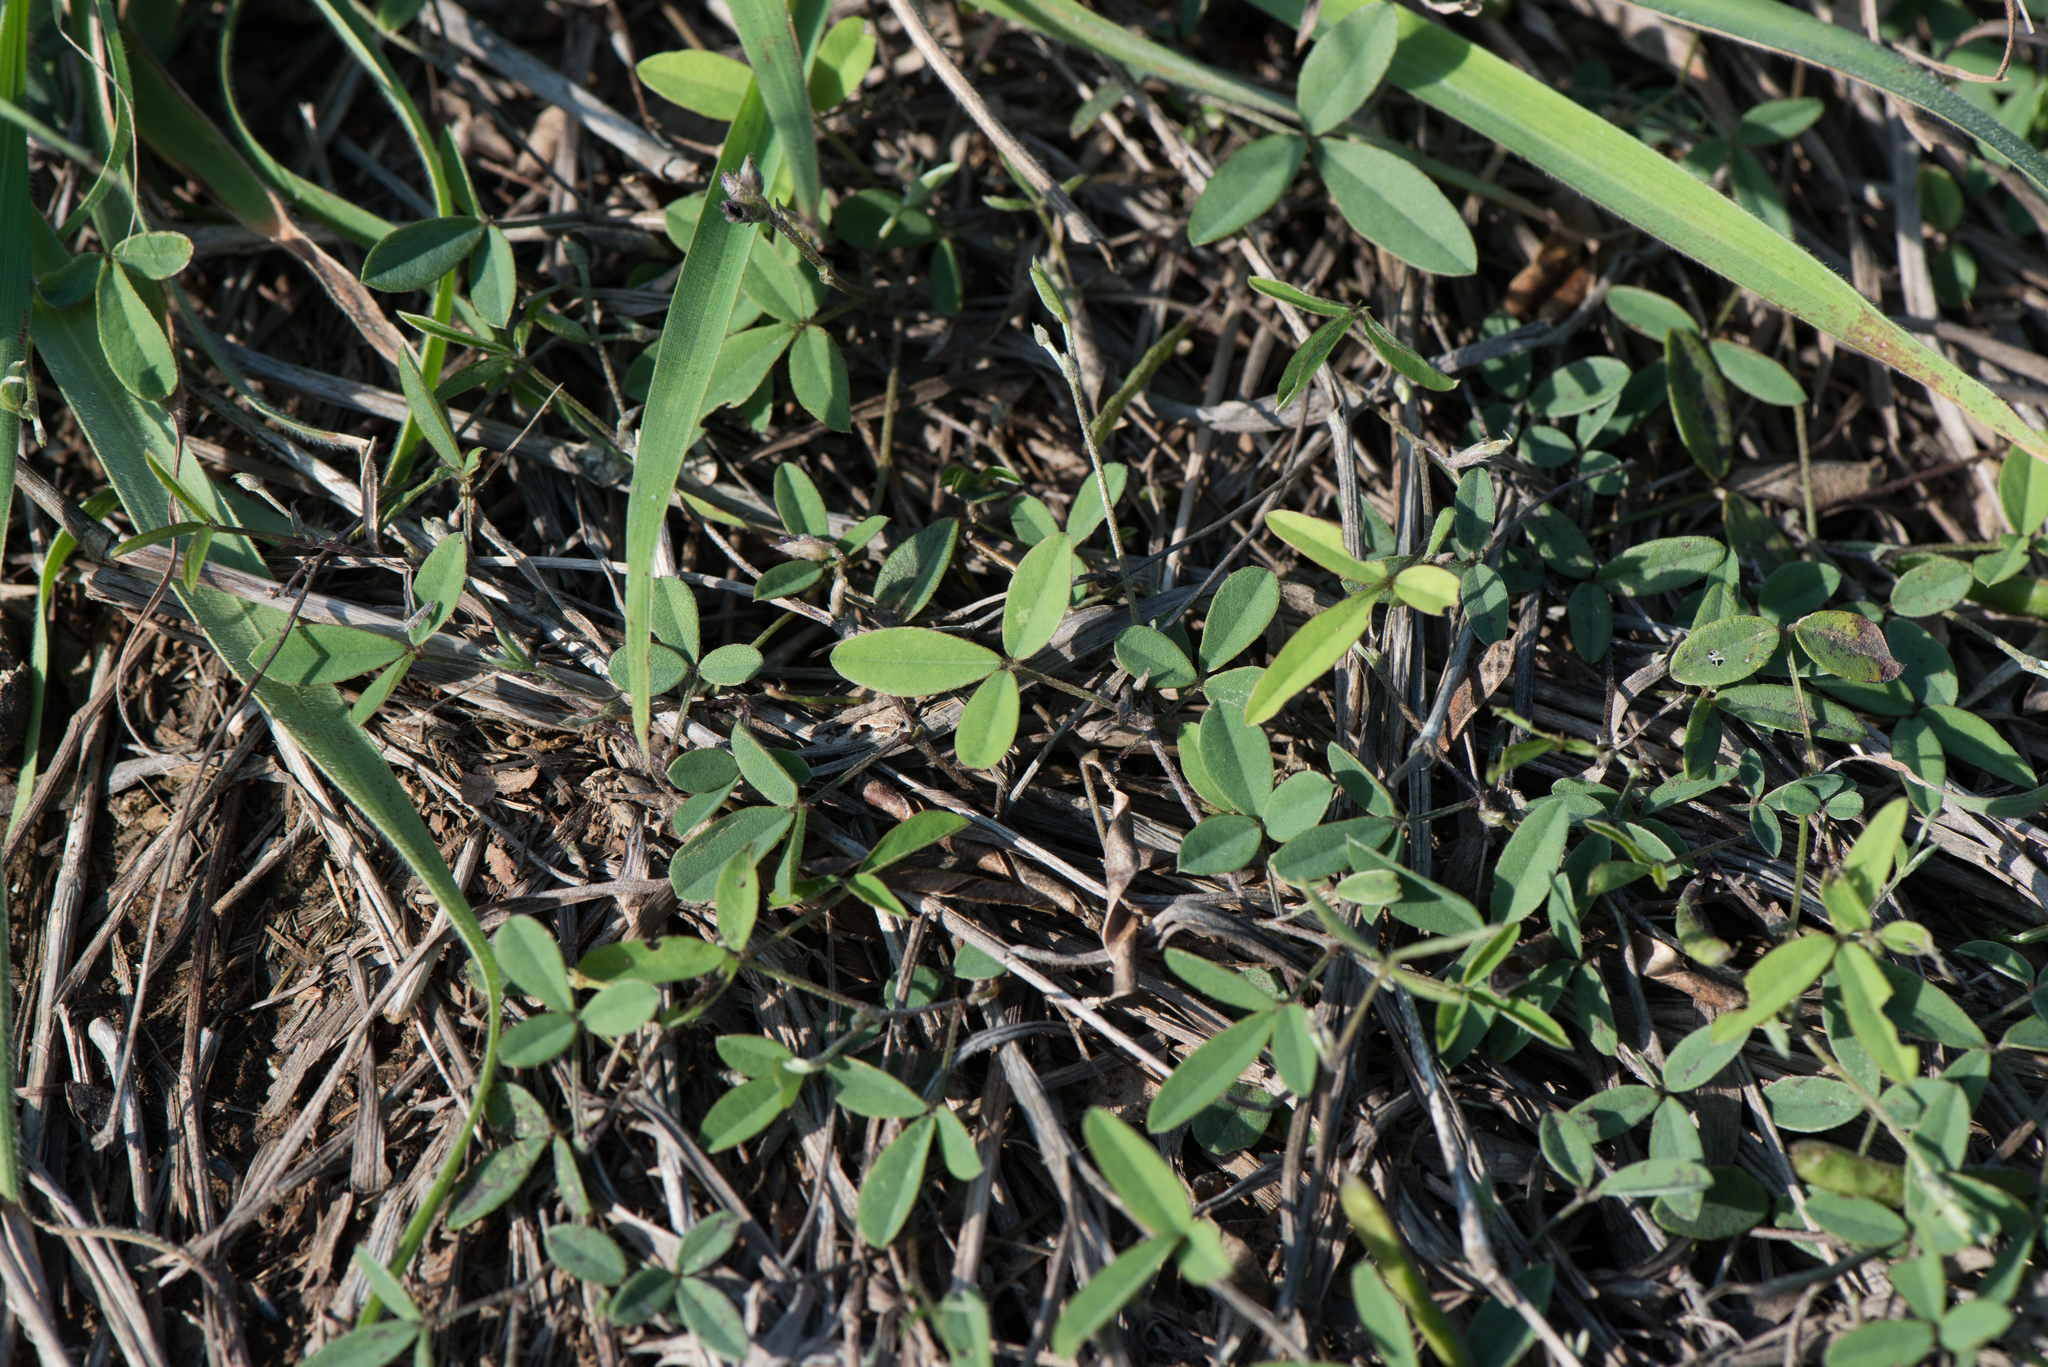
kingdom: Plantae
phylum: Tracheophyta
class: Magnoliopsida
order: Fabales
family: Fabaceae
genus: Glycine
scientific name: Glycine tabacina
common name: Pea glycine
